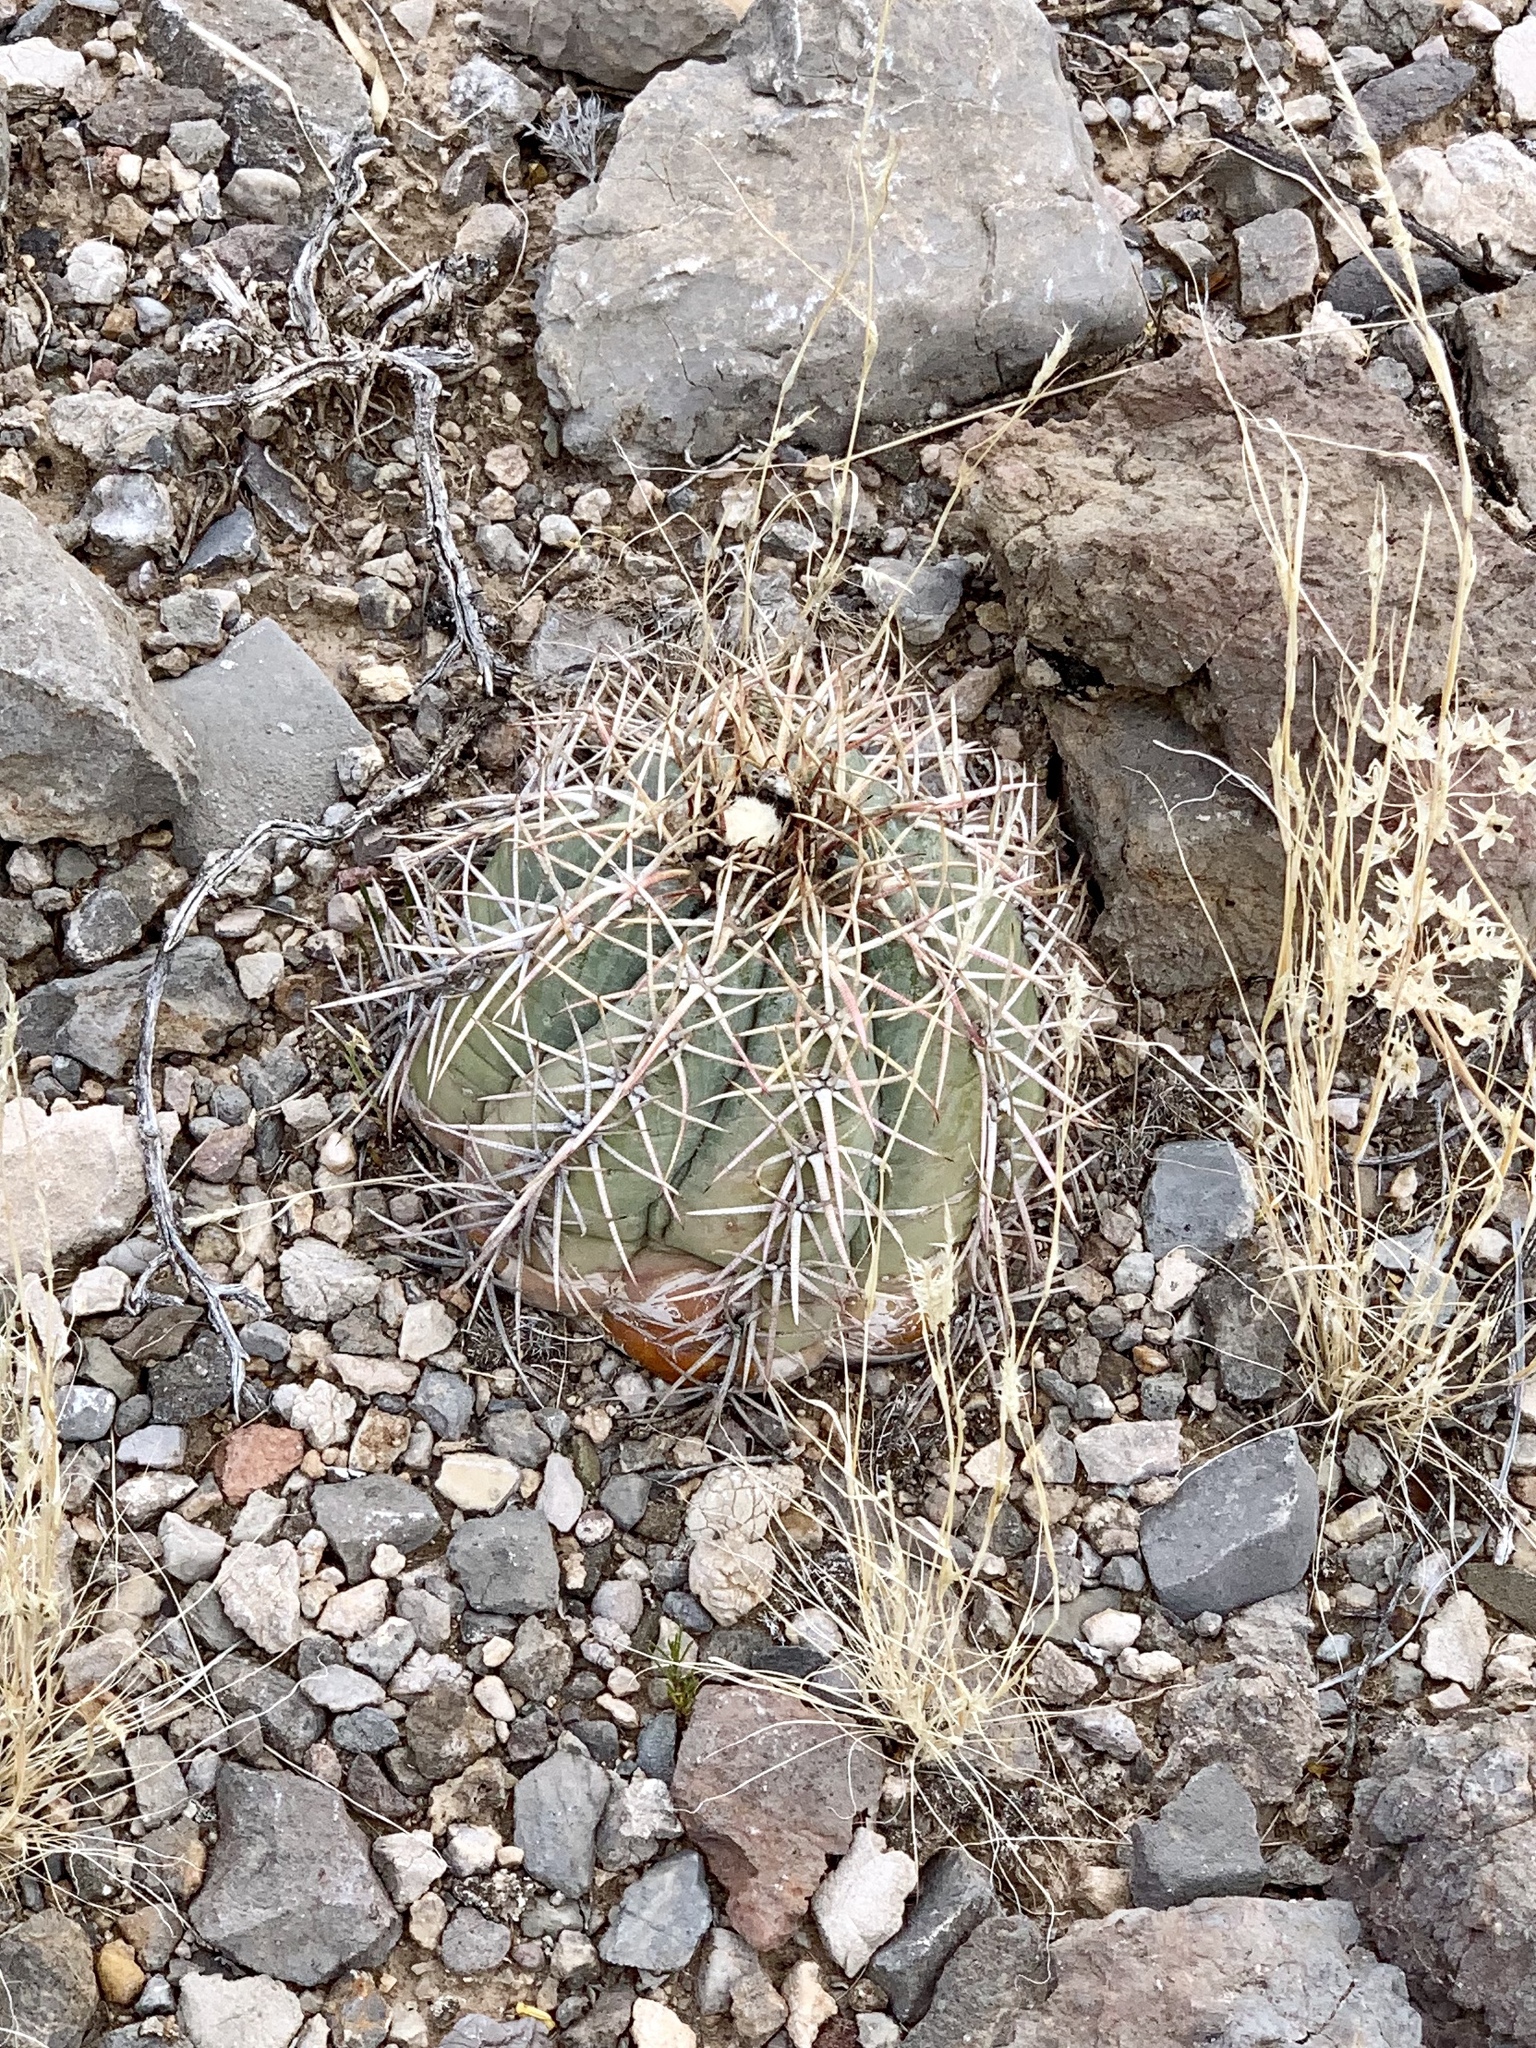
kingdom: Plantae
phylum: Tracheophyta
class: Magnoliopsida
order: Caryophyllales
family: Cactaceae
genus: Echinocactus
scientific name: Echinocactus horizonthalonius
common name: Devilshead
